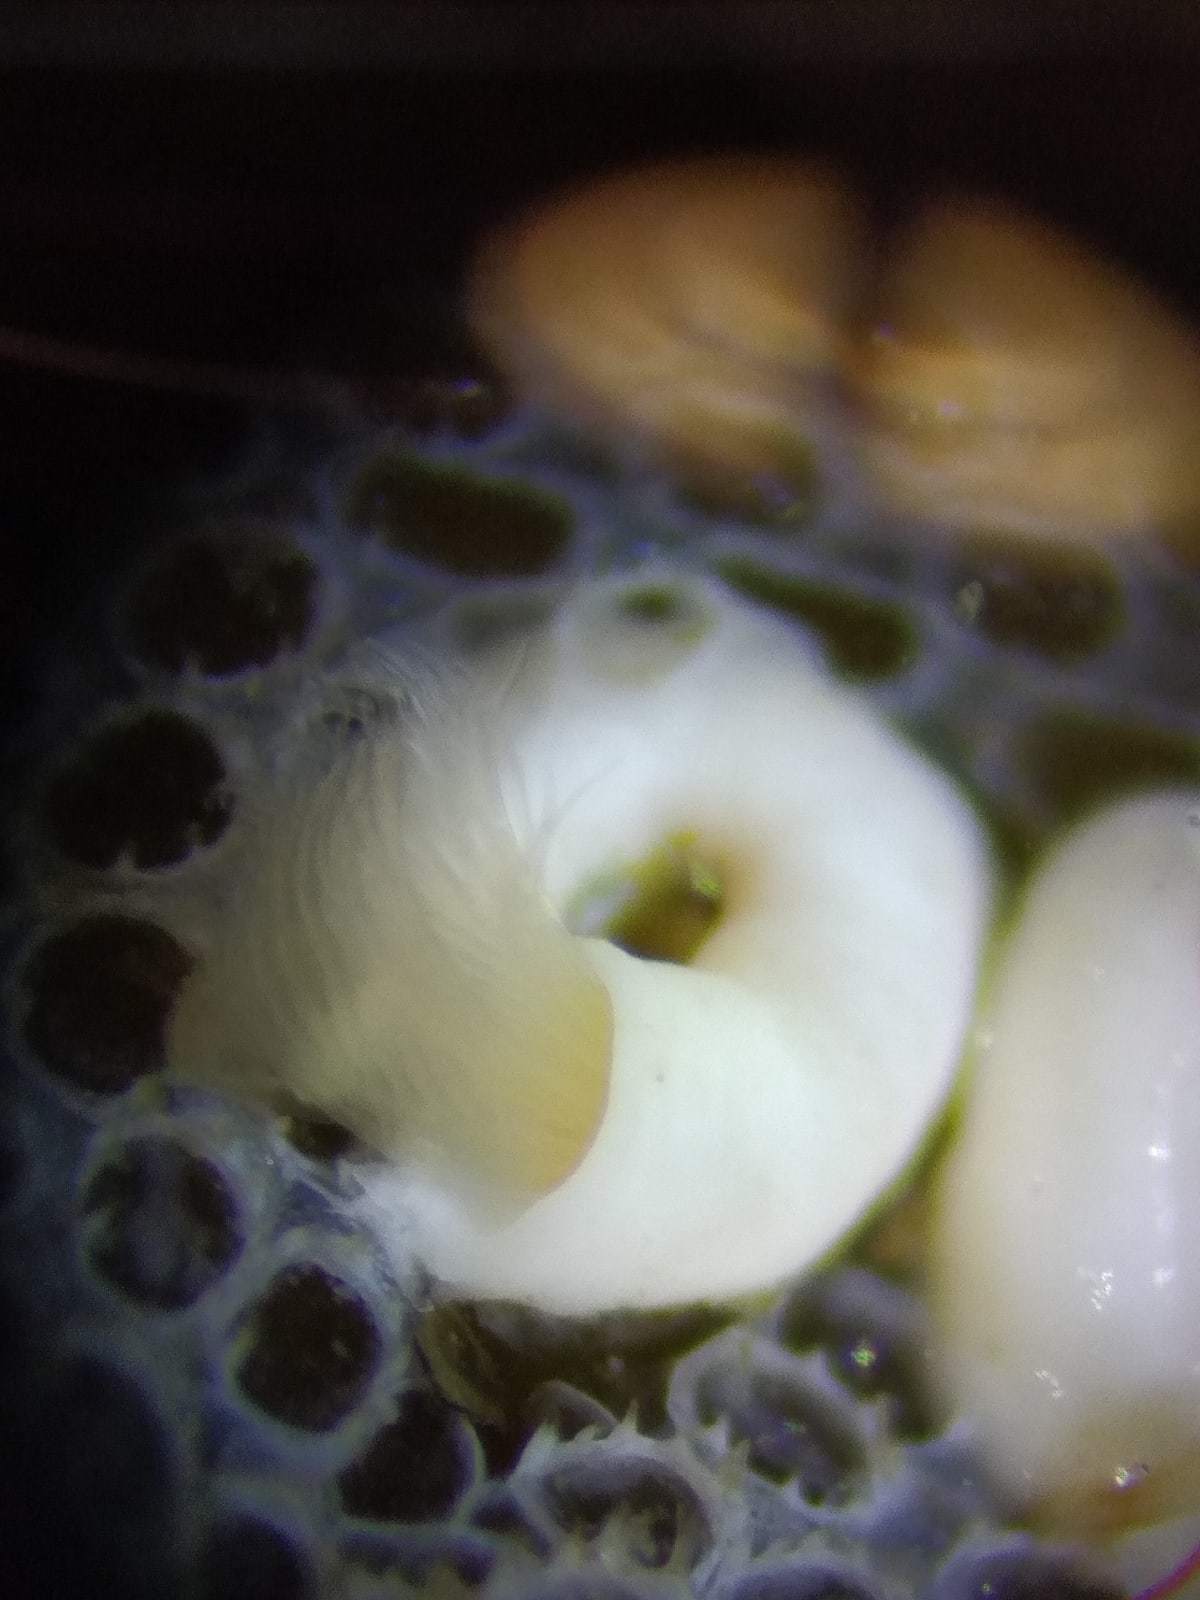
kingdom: Animalia
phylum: Annelida
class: Polychaeta
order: Sabellida
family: Serpulidae
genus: Circeis
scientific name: Circeis spirillum
